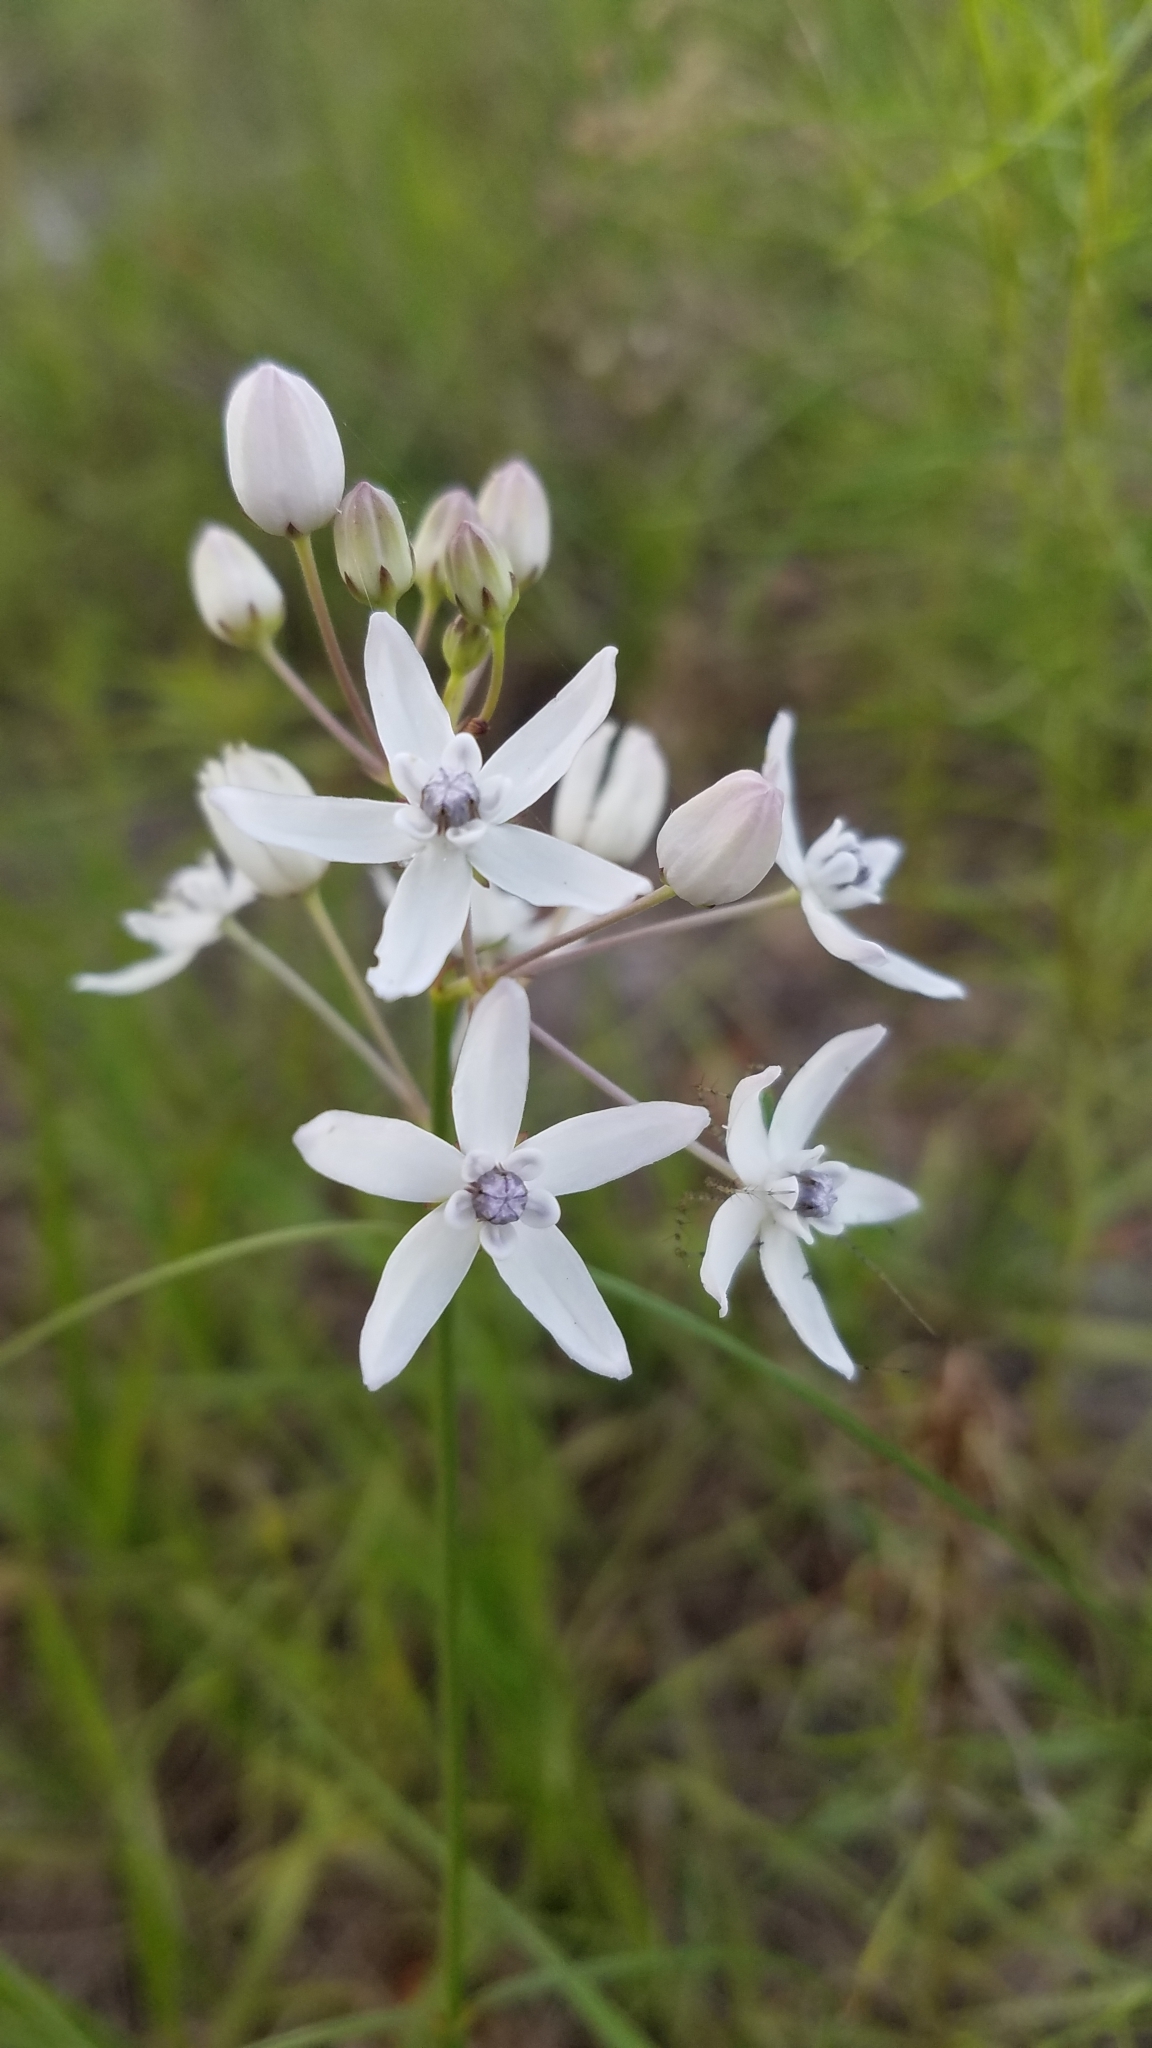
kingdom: Plantae
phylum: Tracheophyta
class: Magnoliopsida
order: Gentianales
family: Apocynaceae
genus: Asclepias
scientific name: Asclepias feayi
